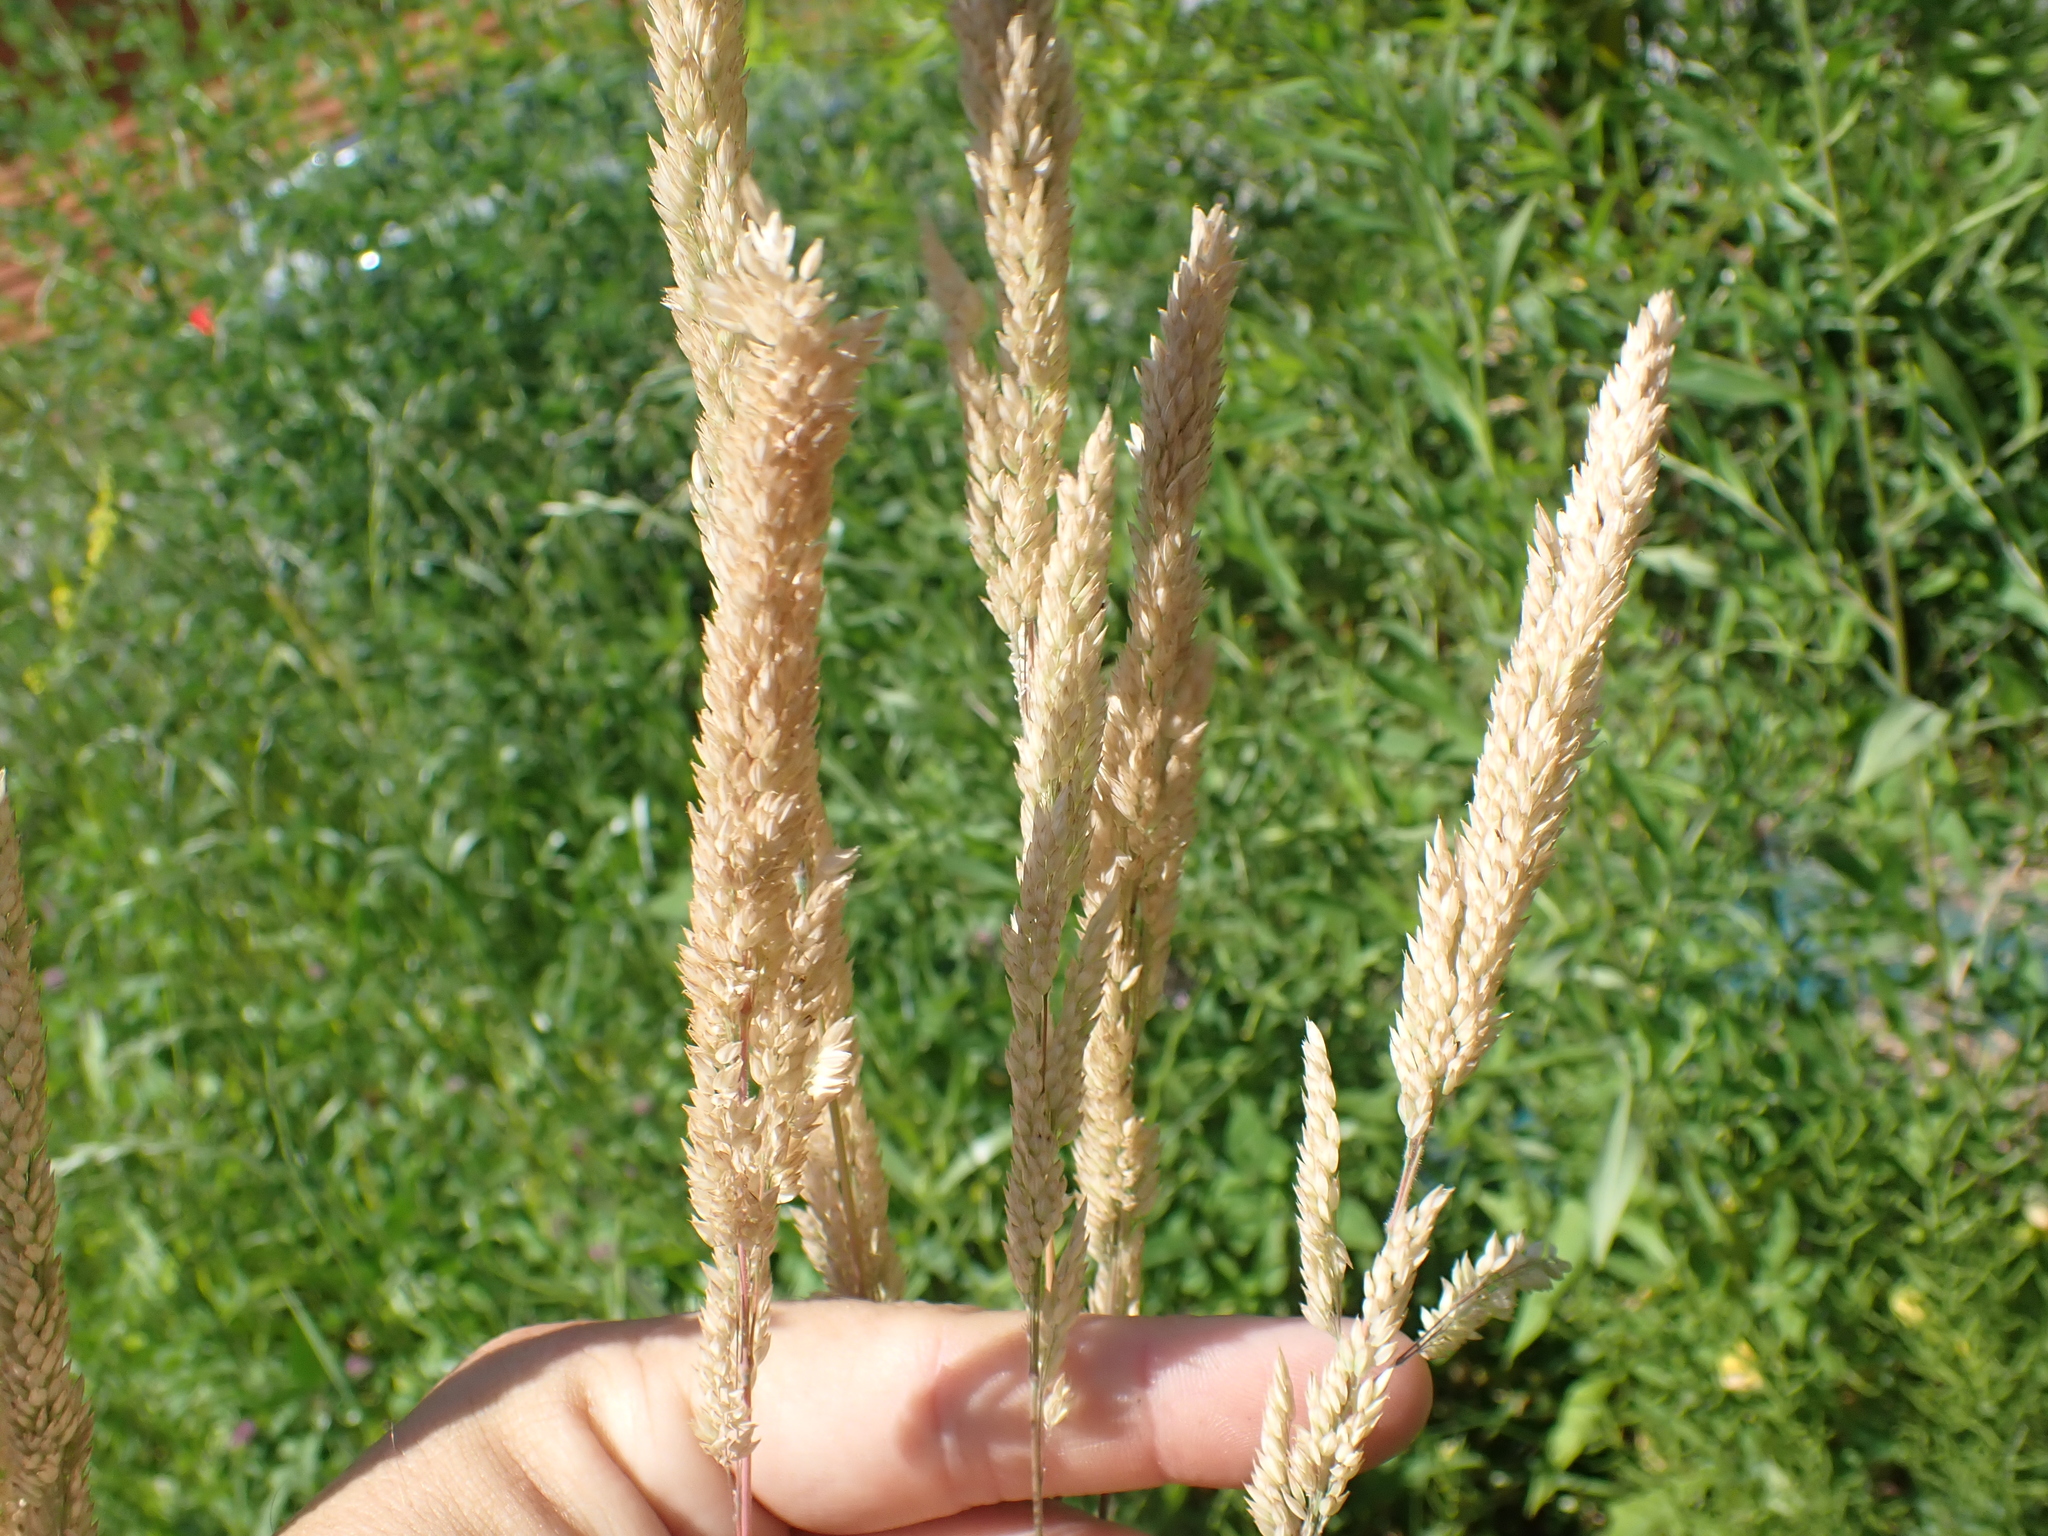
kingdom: Plantae
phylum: Tracheophyta
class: Liliopsida
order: Poales
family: Poaceae
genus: Holcus
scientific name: Holcus lanatus
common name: Yorkshire-fog
